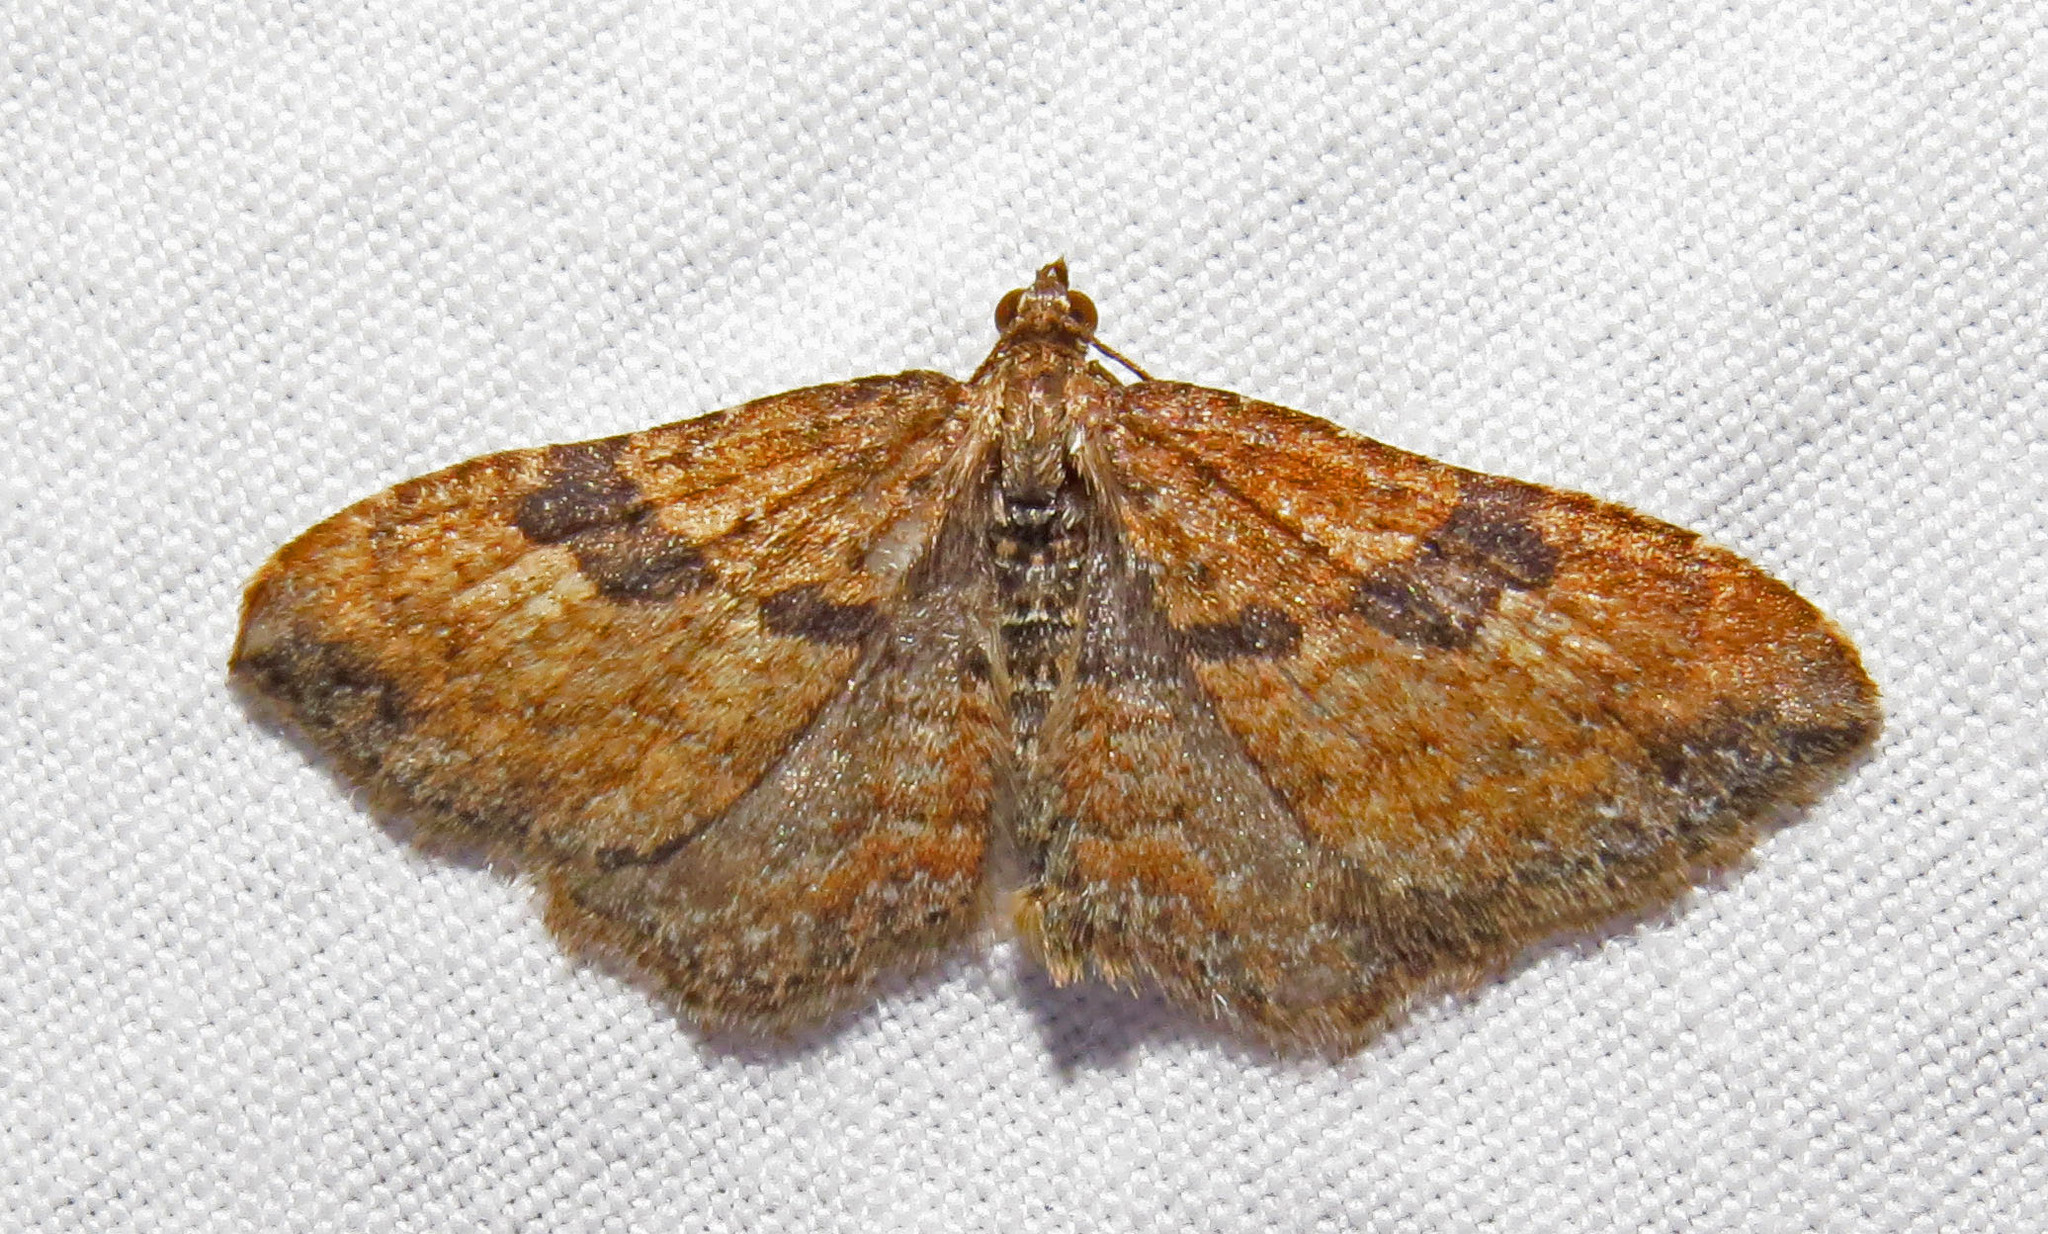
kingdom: Animalia
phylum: Arthropoda
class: Insecta
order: Lepidoptera
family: Geometridae
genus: Orthonama
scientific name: Orthonama obstipata
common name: The gem
